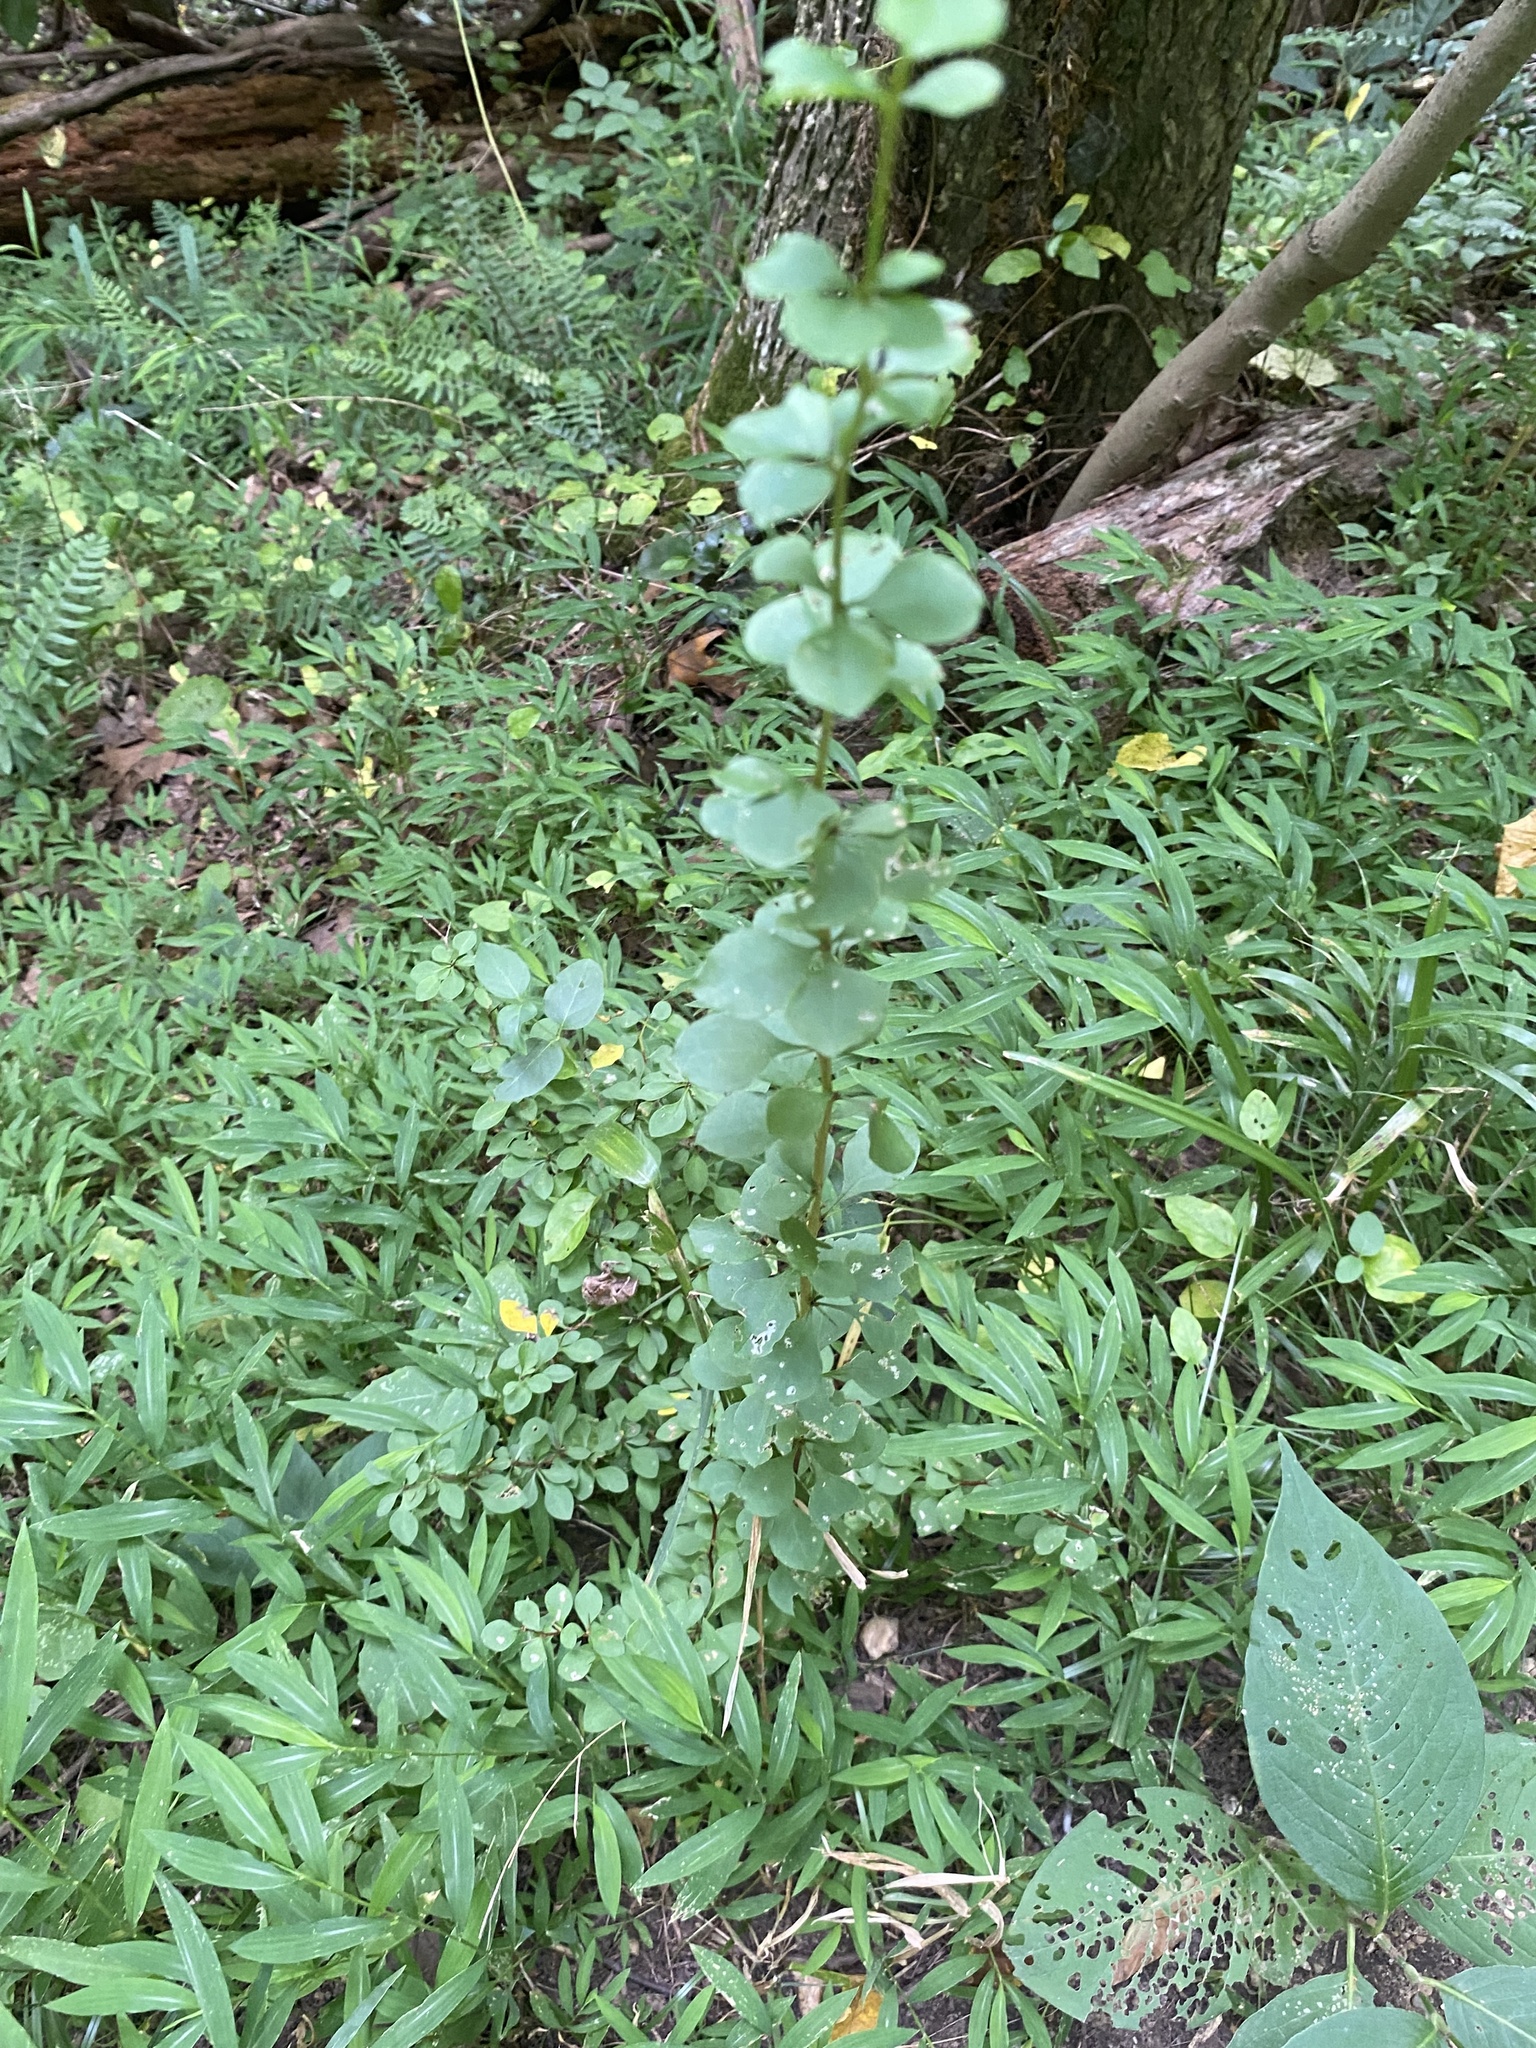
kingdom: Plantae
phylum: Tracheophyta
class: Magnoliopsida
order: Ranunculales
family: Berberidaceae
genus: Berberis
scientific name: Berberis thunbergii
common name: Japanese barberry
